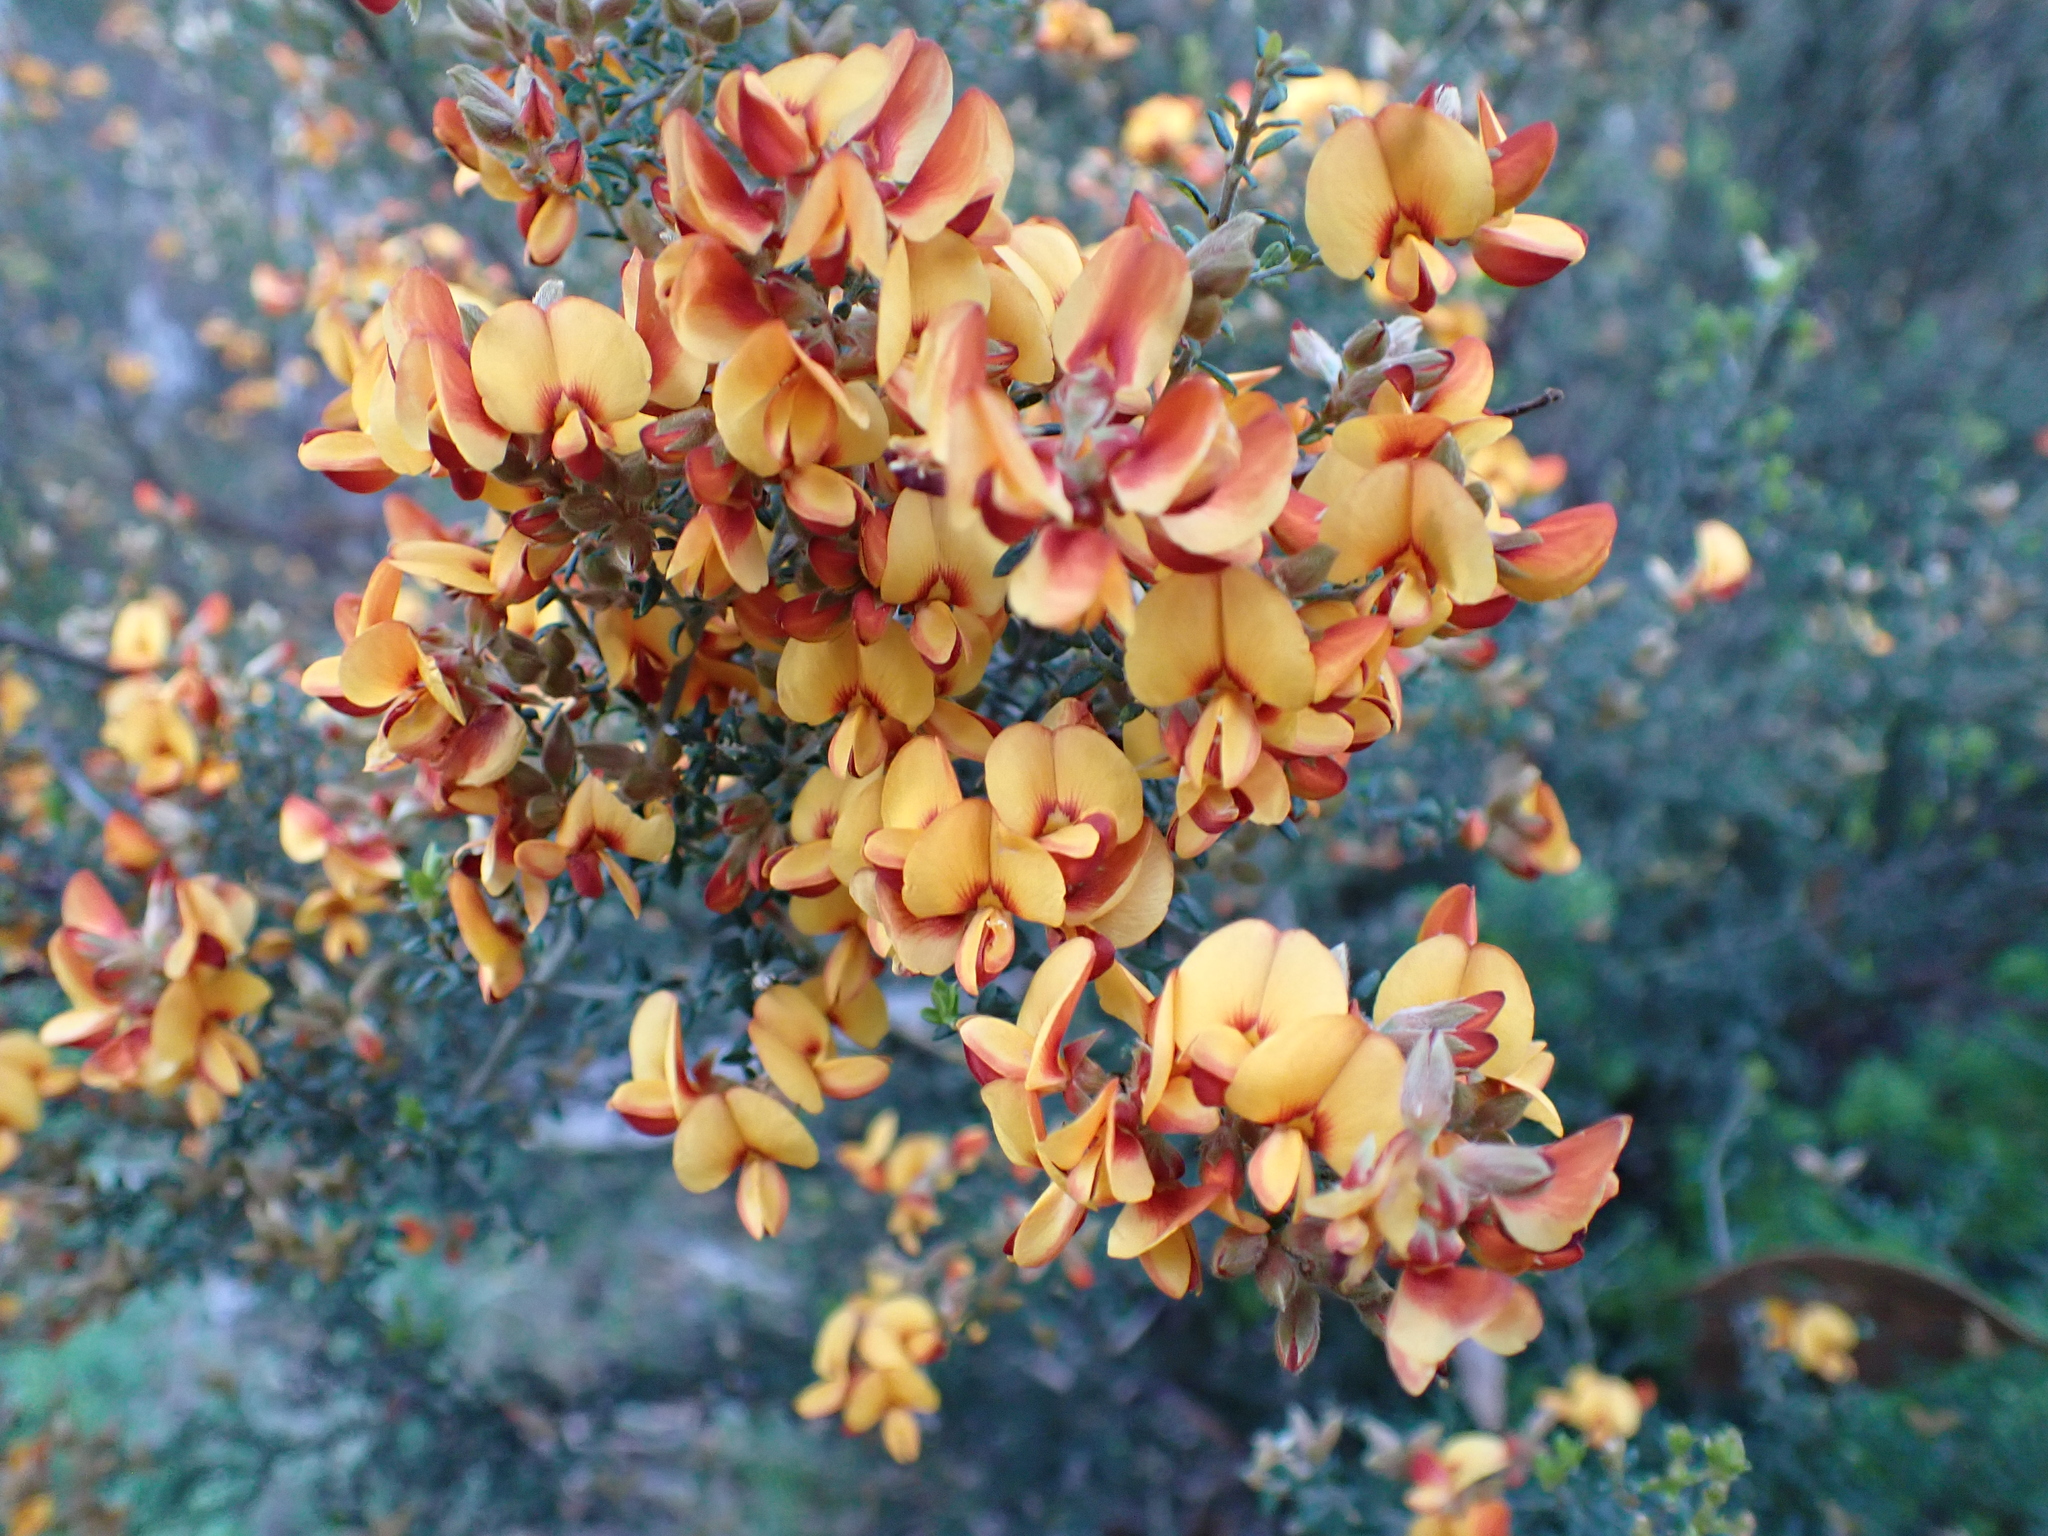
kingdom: Plantae
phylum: Tracheophyta
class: Magnoliopsida
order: Fabales
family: Fabaceae
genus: Oxylobium
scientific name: Oxylobium oxylobioides
